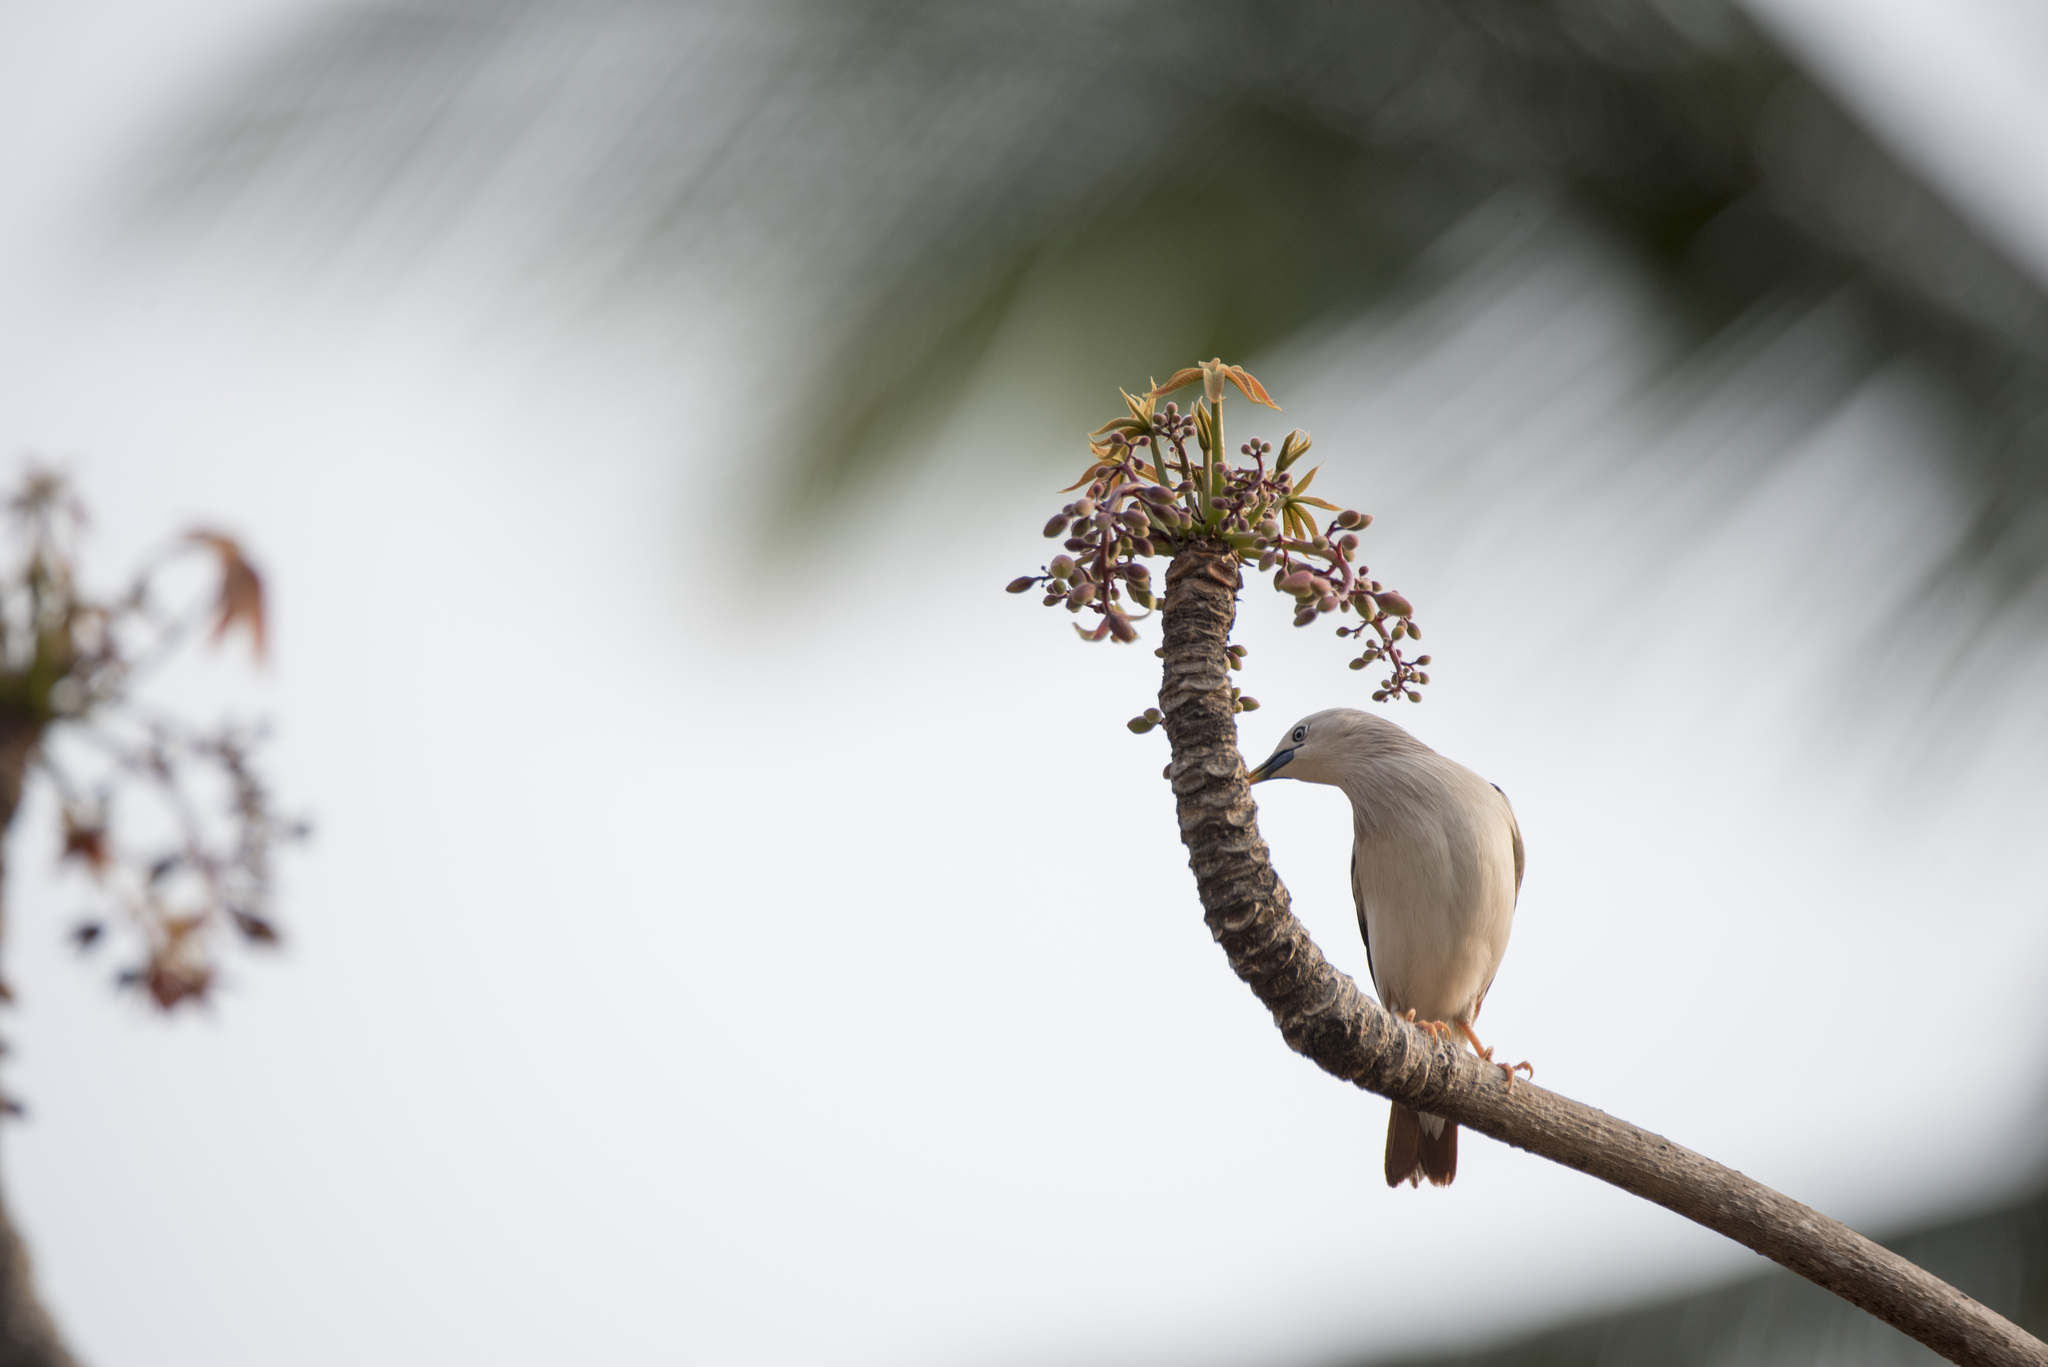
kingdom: Animalia
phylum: Chordata
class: Aves
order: Passeriformes
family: Sturnidae
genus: Sturnia
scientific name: Sturnia malabarica
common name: Chestnut-tailed starling
